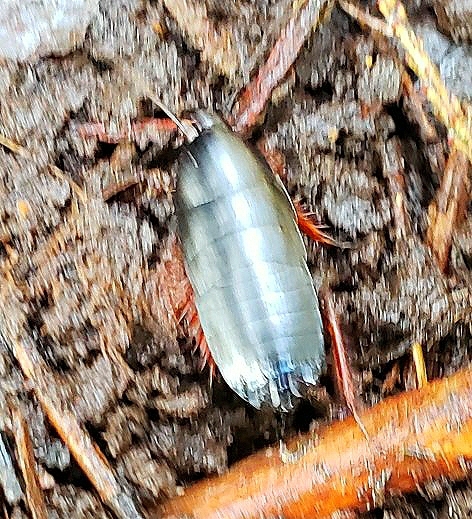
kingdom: Animalia
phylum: Arthropoda
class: Insecta
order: Blattodea
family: Ectobiidae
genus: Ischnoptera
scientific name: Ischnoptera deropeltiformis
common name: Dark wood cockroach
